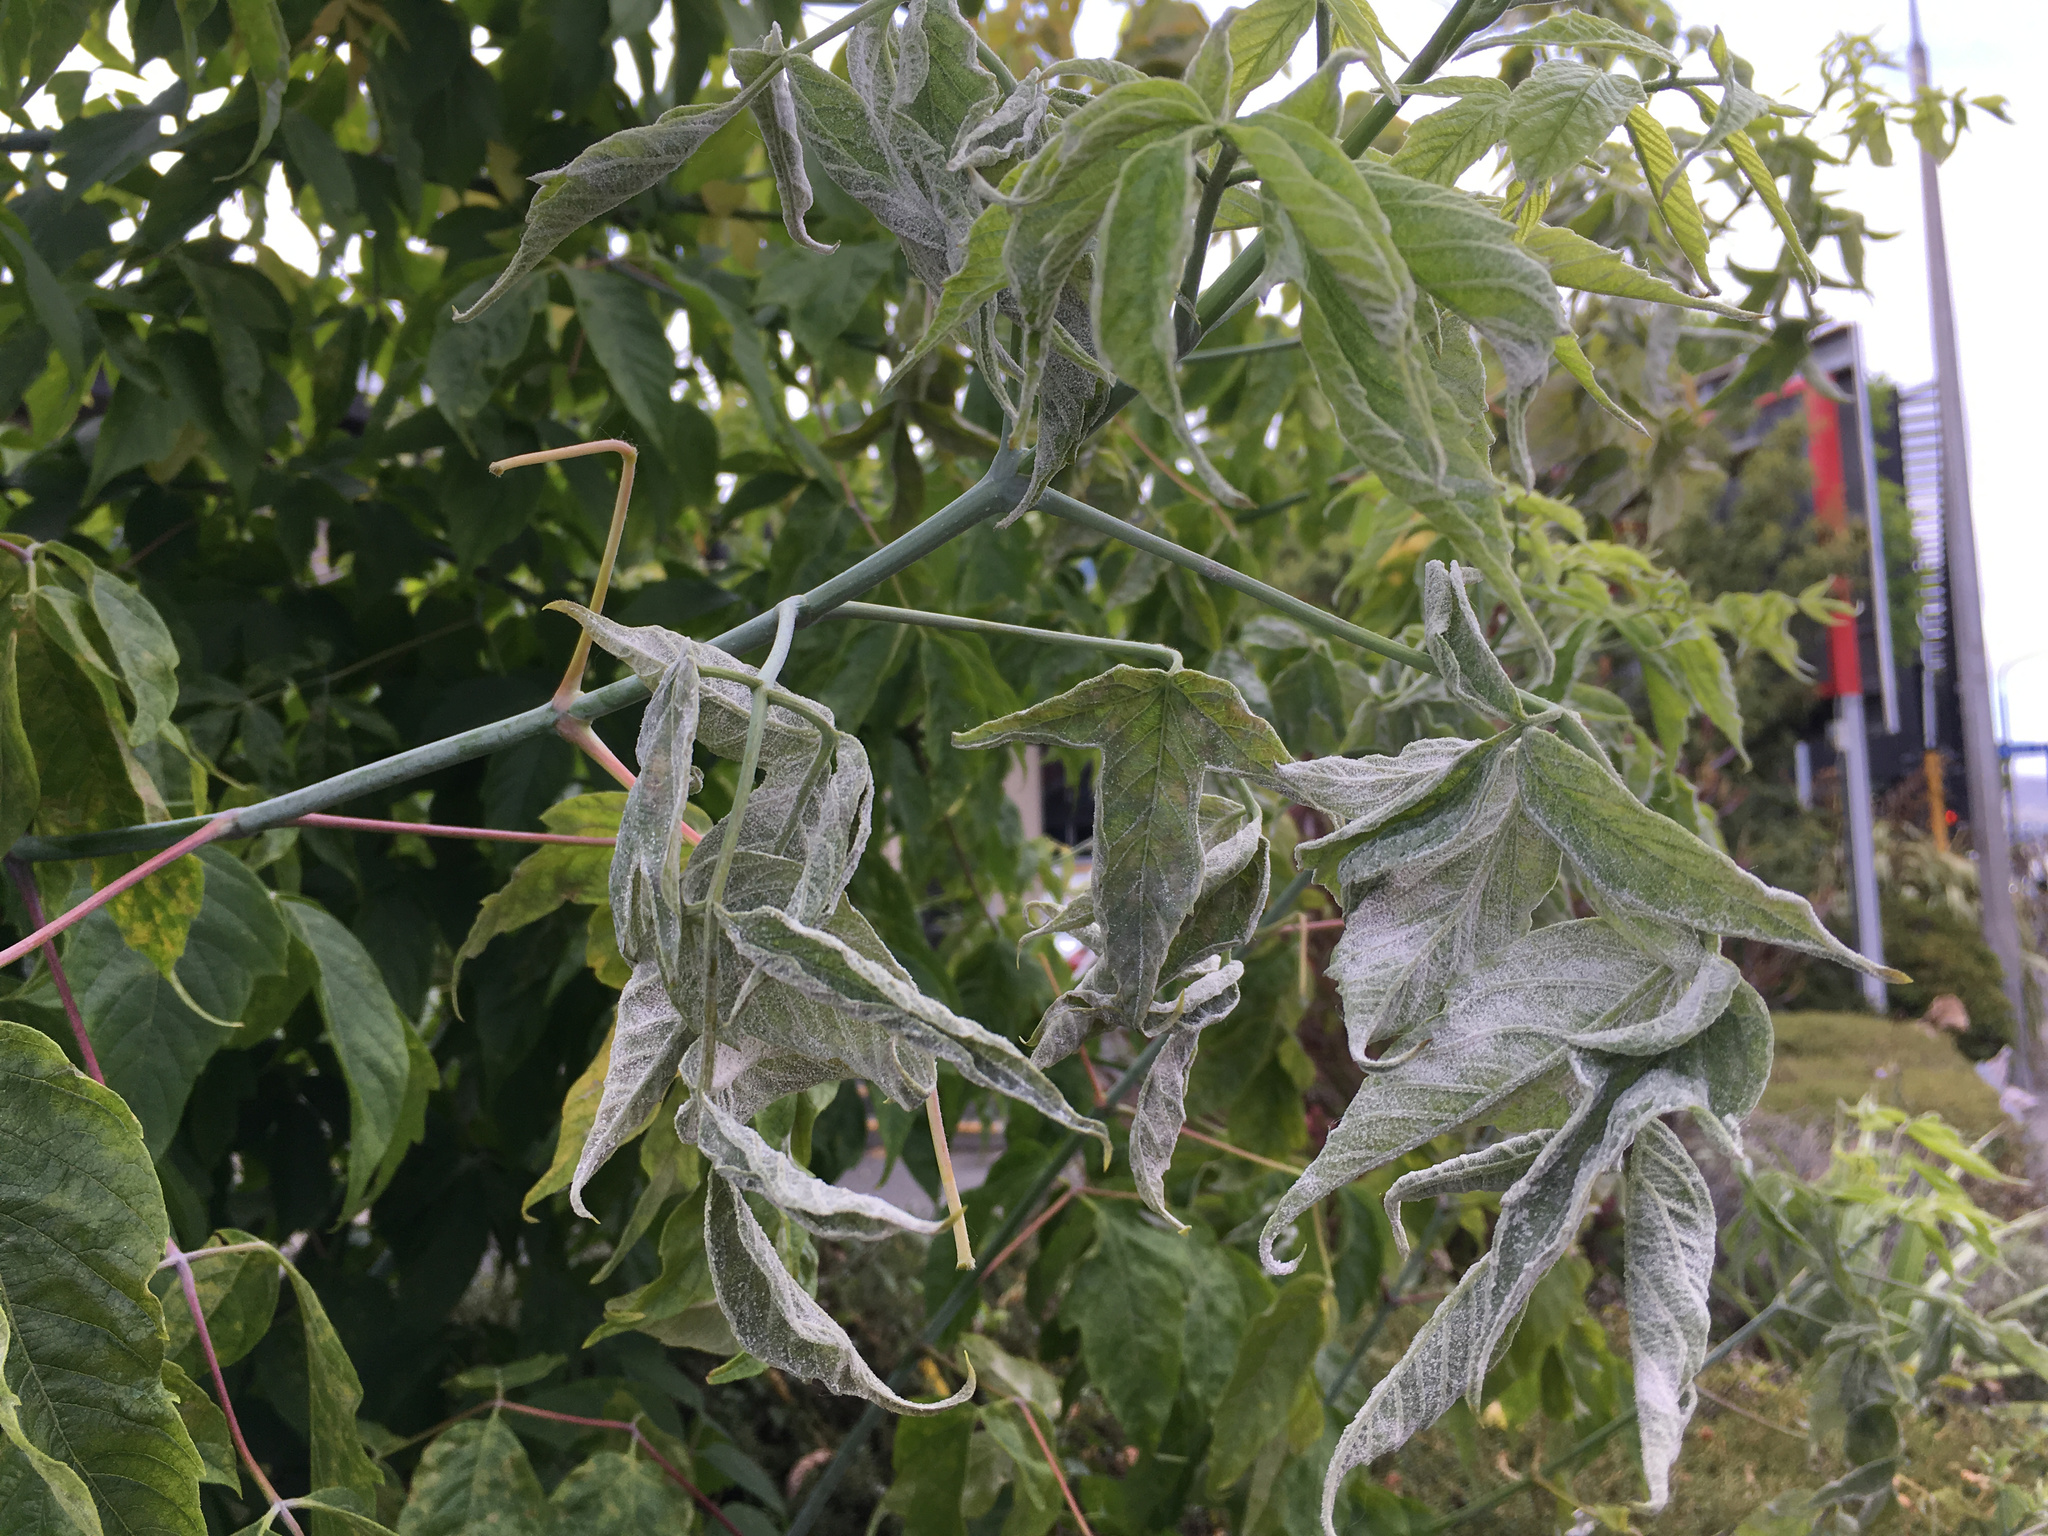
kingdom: Fungi
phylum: Ascomycota
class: Leotiomycetes
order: Helotiales
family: Erysiphaceae
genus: Sawadaea
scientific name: Sawadaea bicornis
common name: Maple mildew
